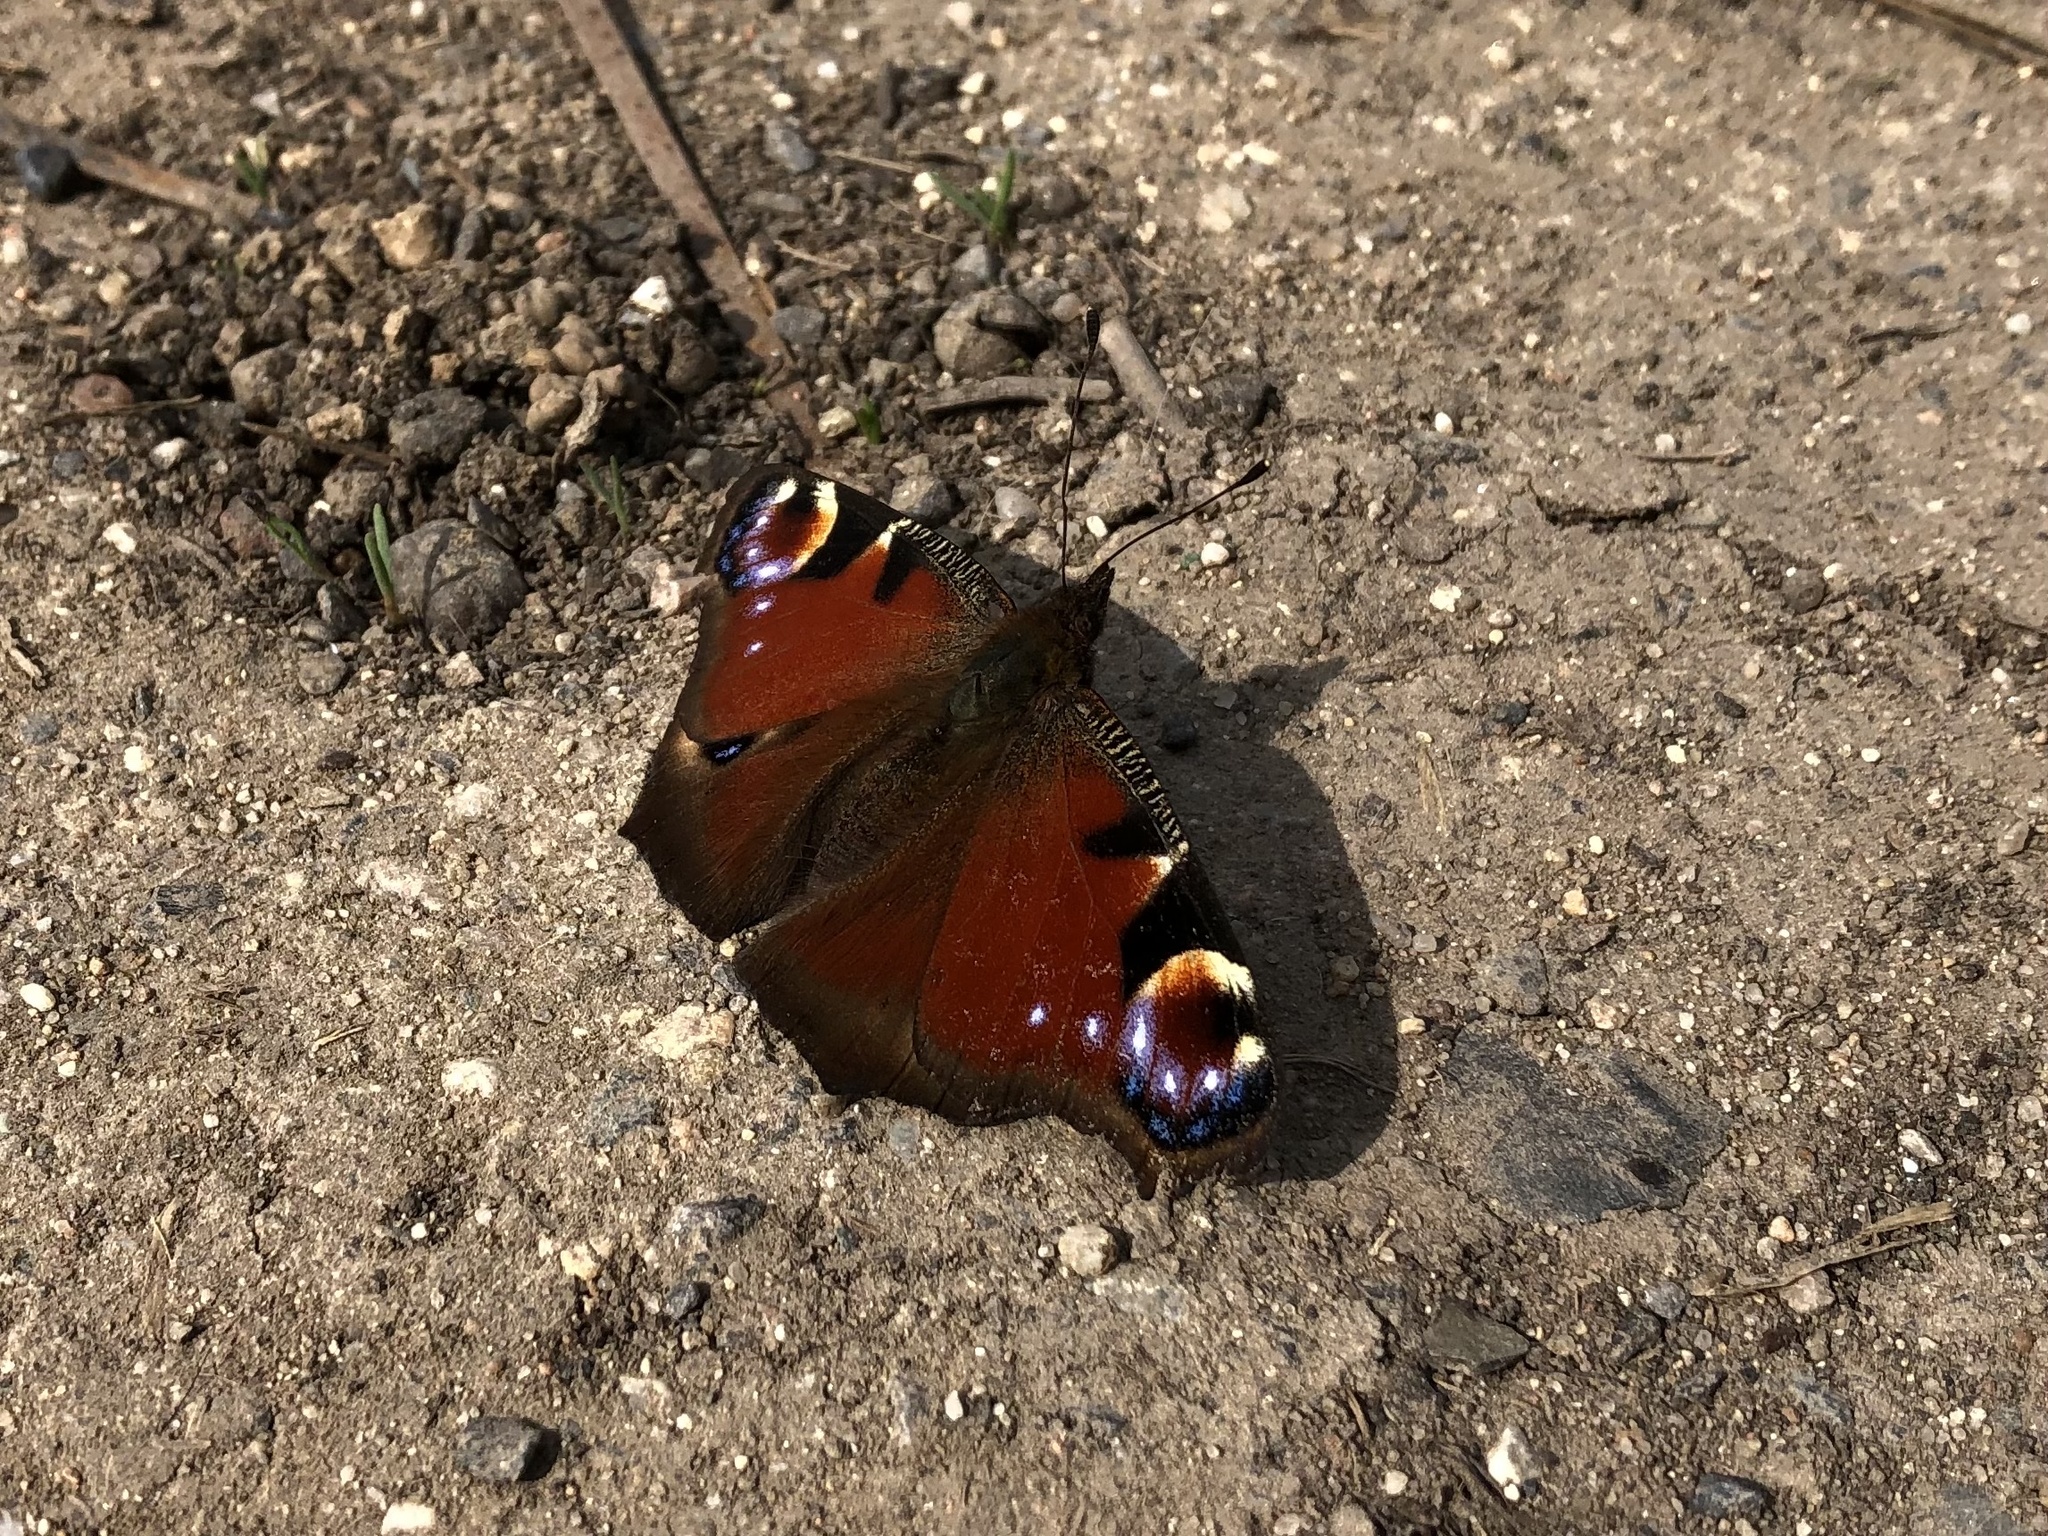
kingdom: Animalia
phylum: Arthropoda
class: Insecta
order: Lepidoptera
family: Nymphalidae
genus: Aglais
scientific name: Aglais io
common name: Peacock
